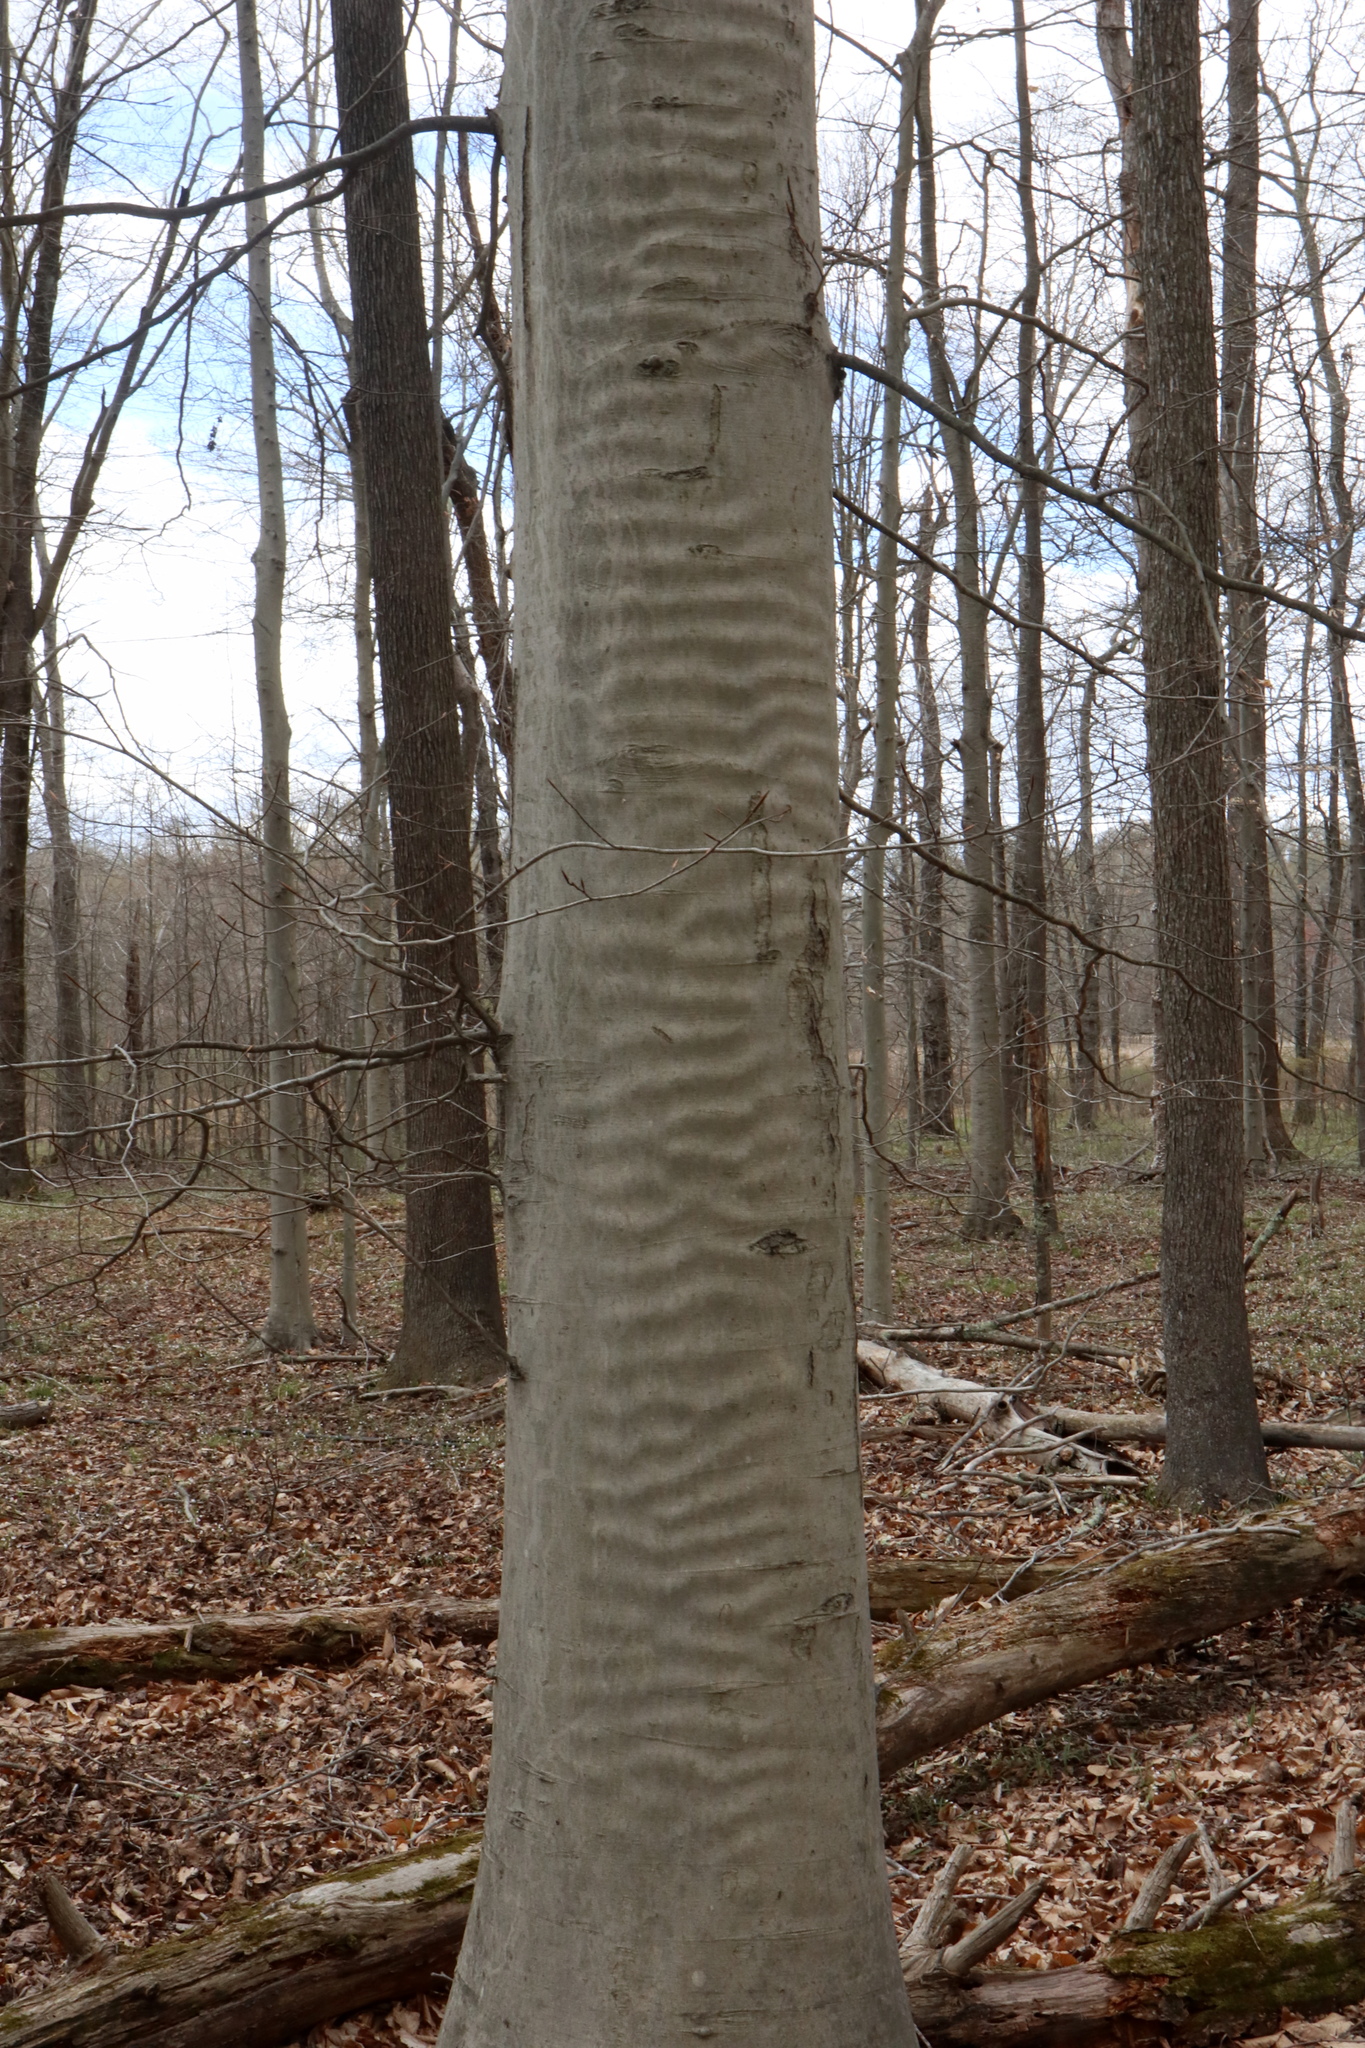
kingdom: Plantae
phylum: Tracheophyta
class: Magnoliopsida
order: Fagales
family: Fagaceae
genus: Fagus
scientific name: Fagus grandifolia
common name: American beech
